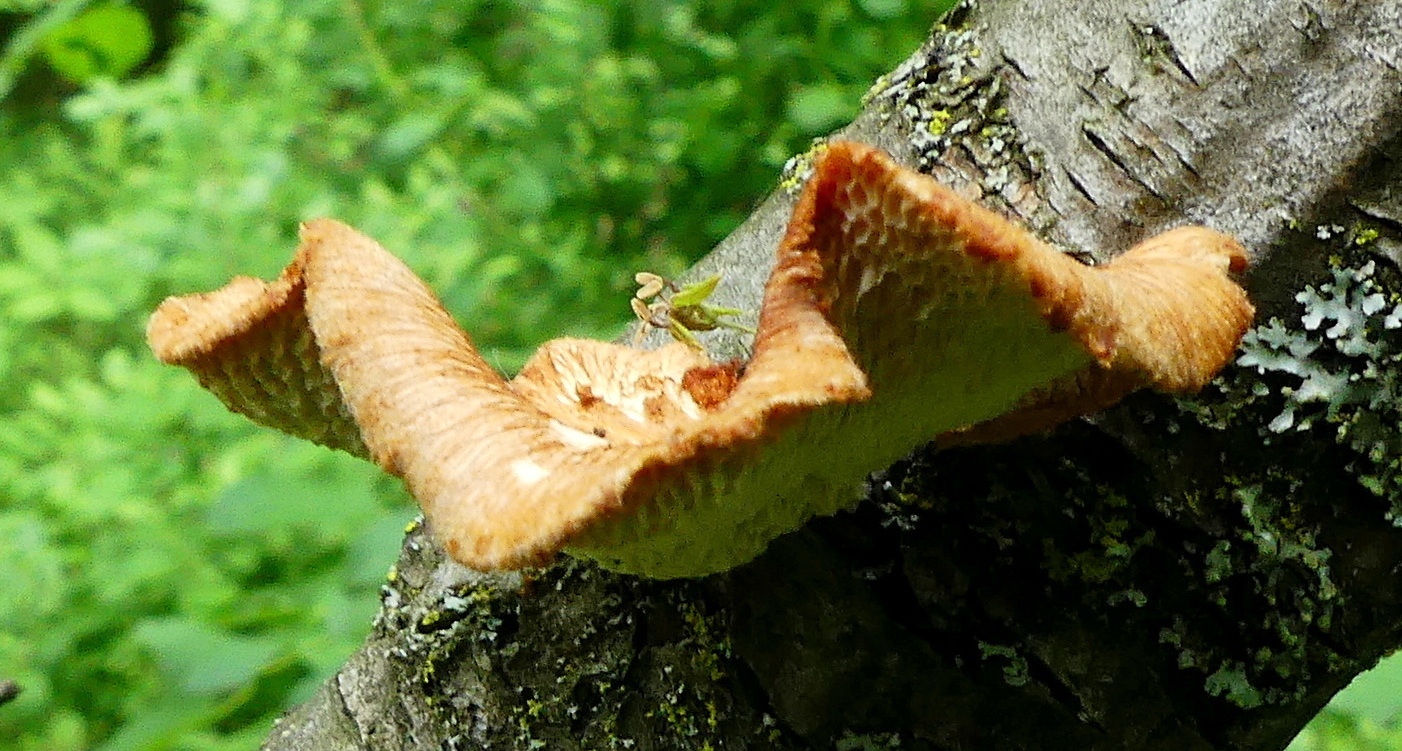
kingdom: Fungi
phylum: Basidiomycota
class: Agaricomycetes
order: Polyporales
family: Polyporaceae
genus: Neofavolus
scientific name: Neofavolus alveolaris
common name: Hexagonal-pored polypore
